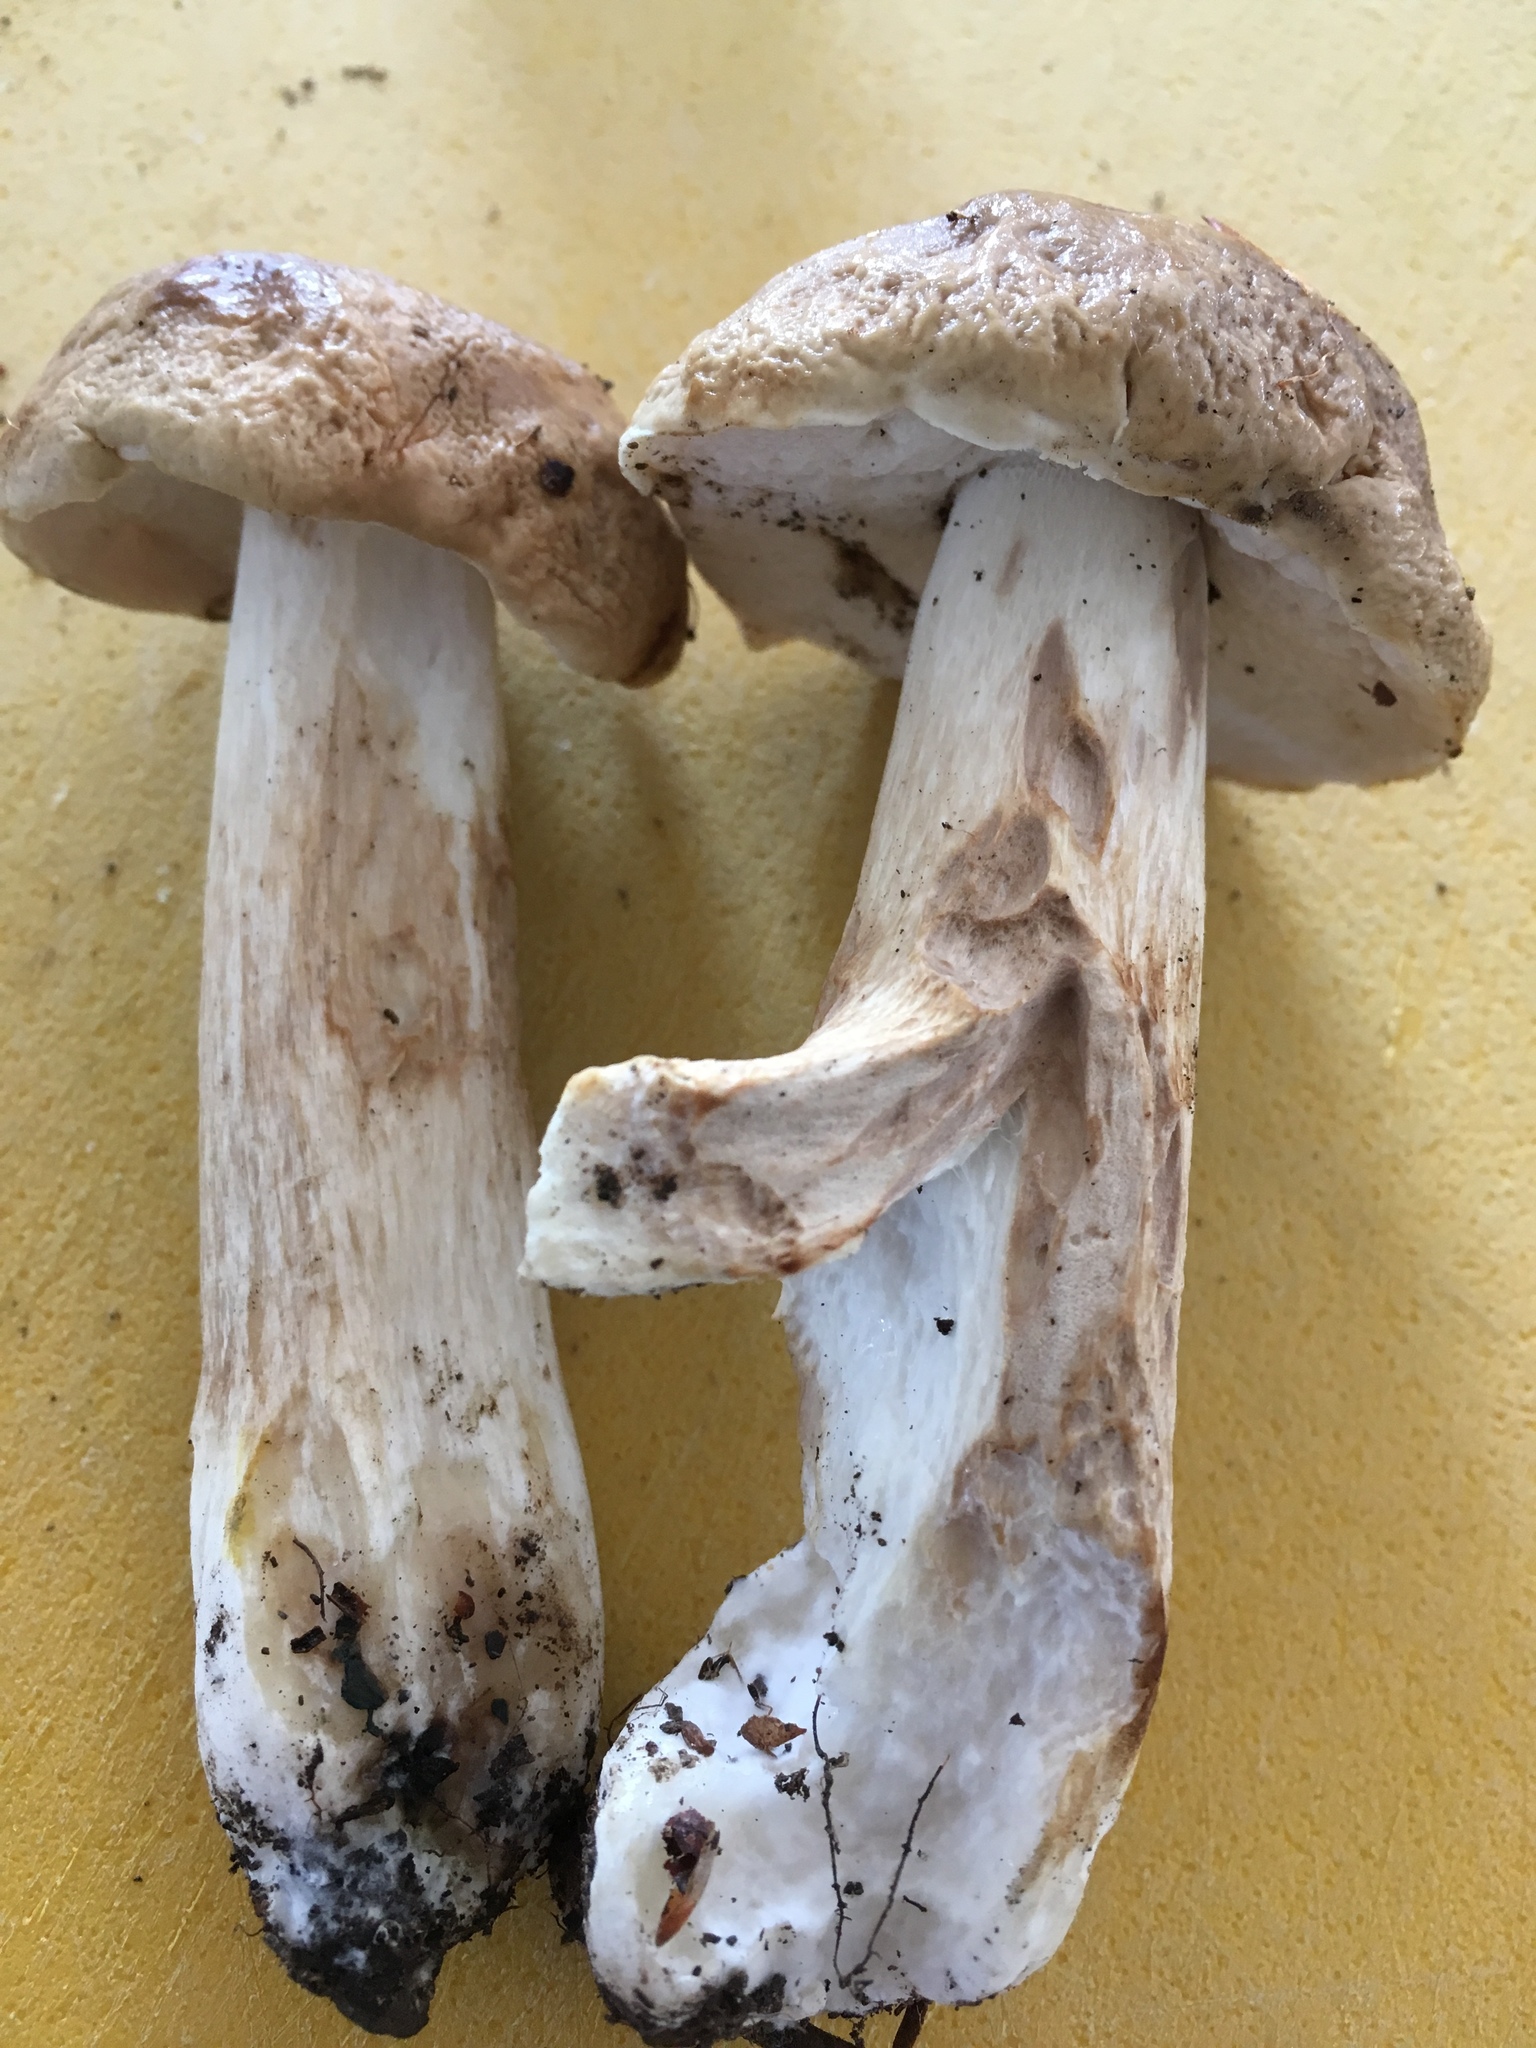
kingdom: Fungi
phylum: Basidiomycota
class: Agaricomycetes
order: Boletales
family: Boletaceae
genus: Xanthoconium
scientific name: Xanthoconium separans
